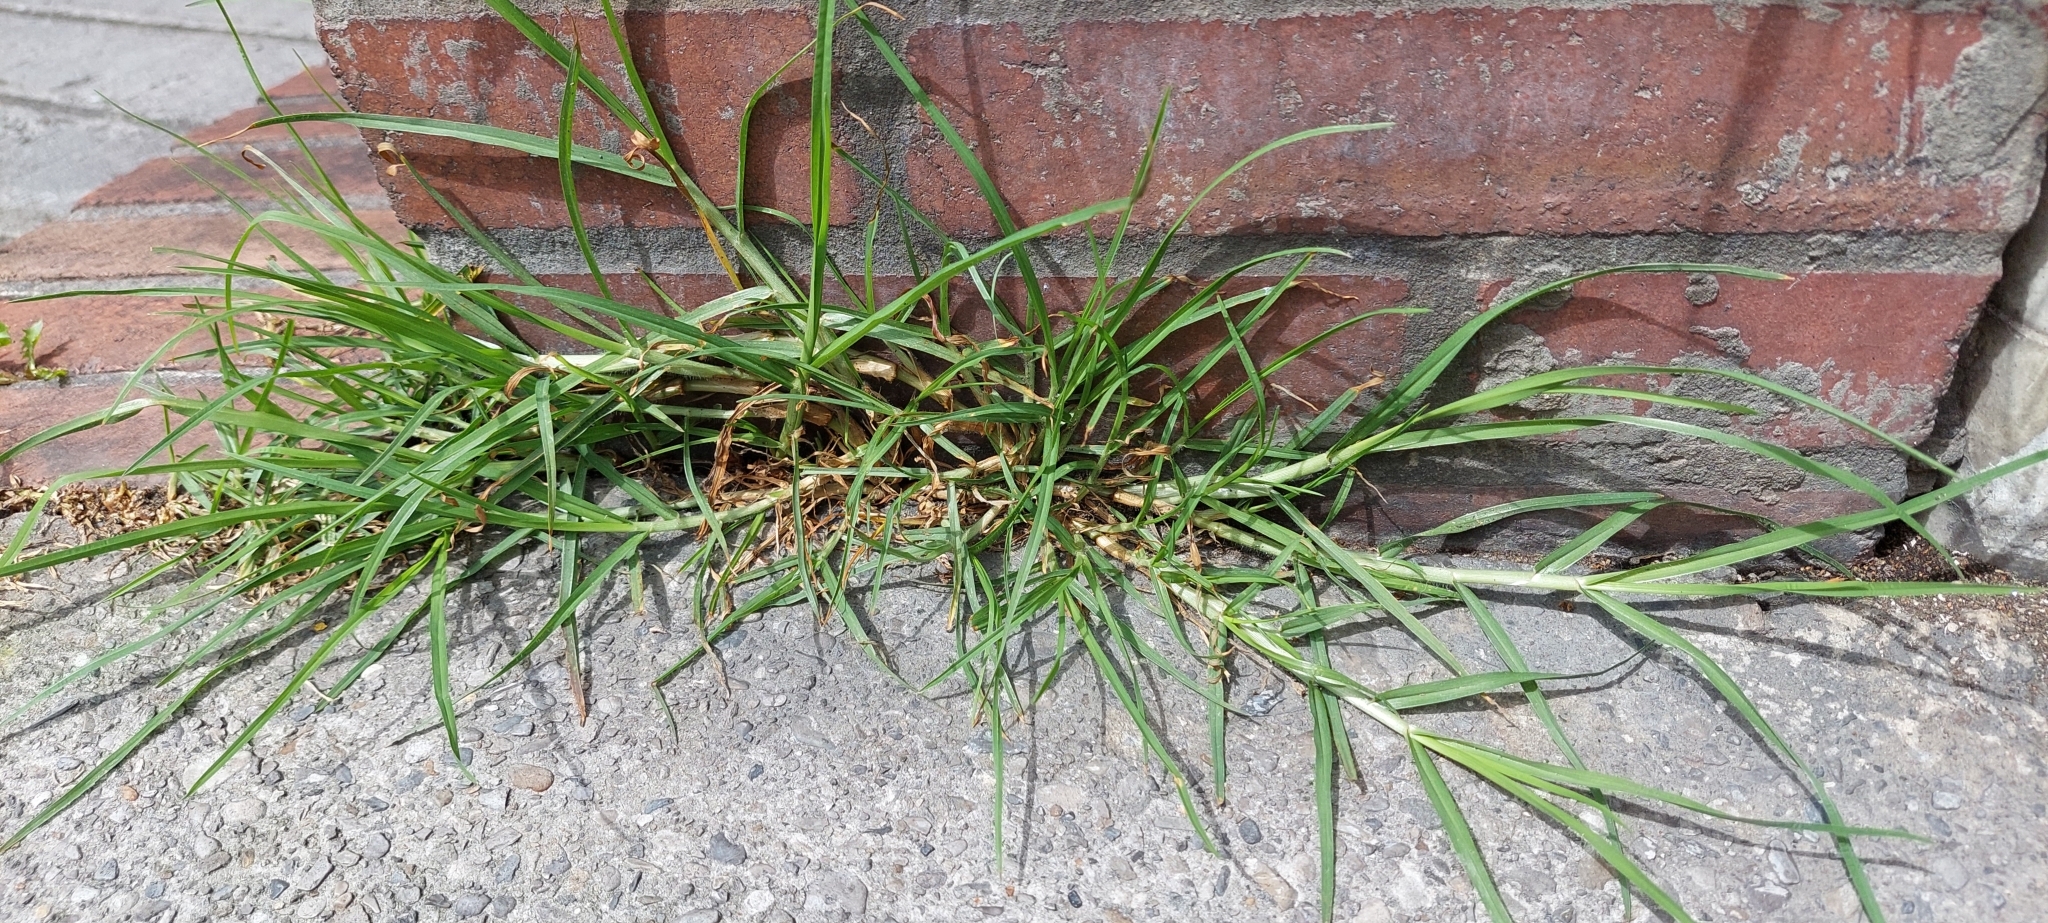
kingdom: Plantae
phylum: Tracheophyta
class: Liliopsida
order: Poales
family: Poaceae
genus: Cenchrus
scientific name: Cenchrus clandestinus
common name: Kikuyugrass
